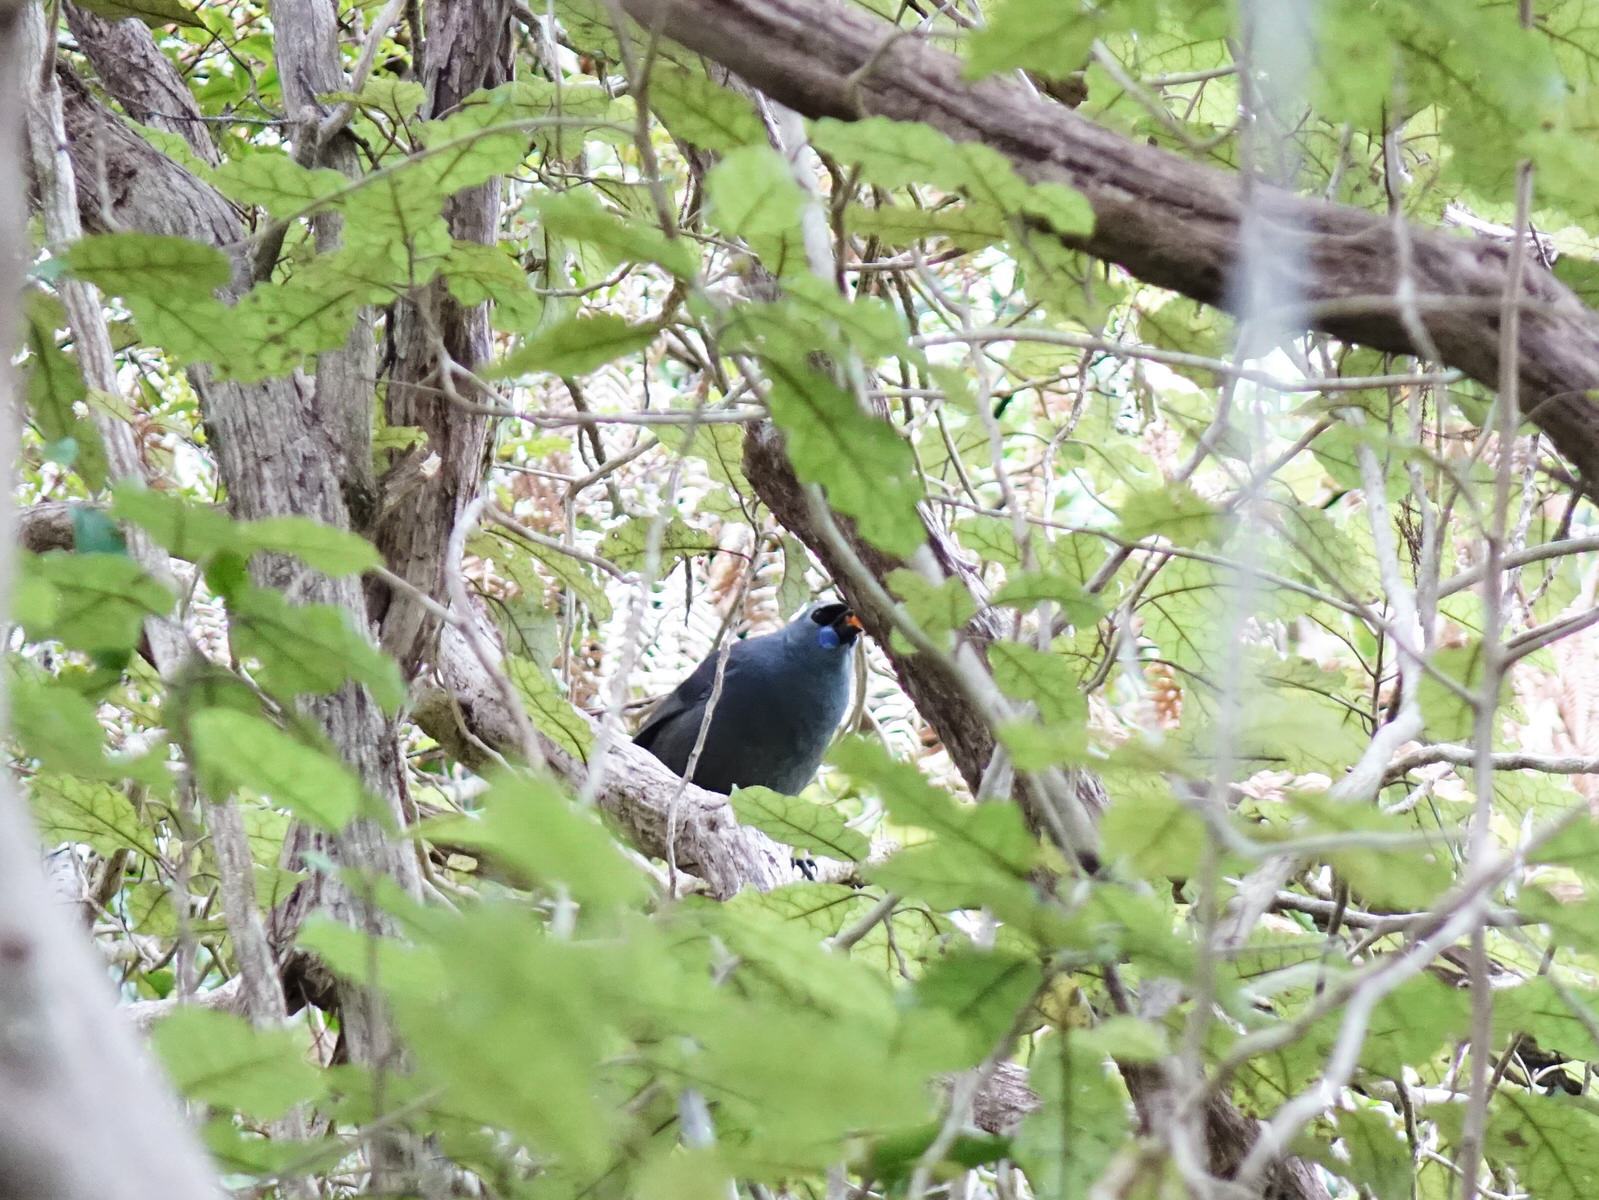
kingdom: Animalia
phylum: Chordata
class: Aves
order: Passeriformes
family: Callaeatidae
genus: Callaeas
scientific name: Callaeas cinereus
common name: South island kokako
